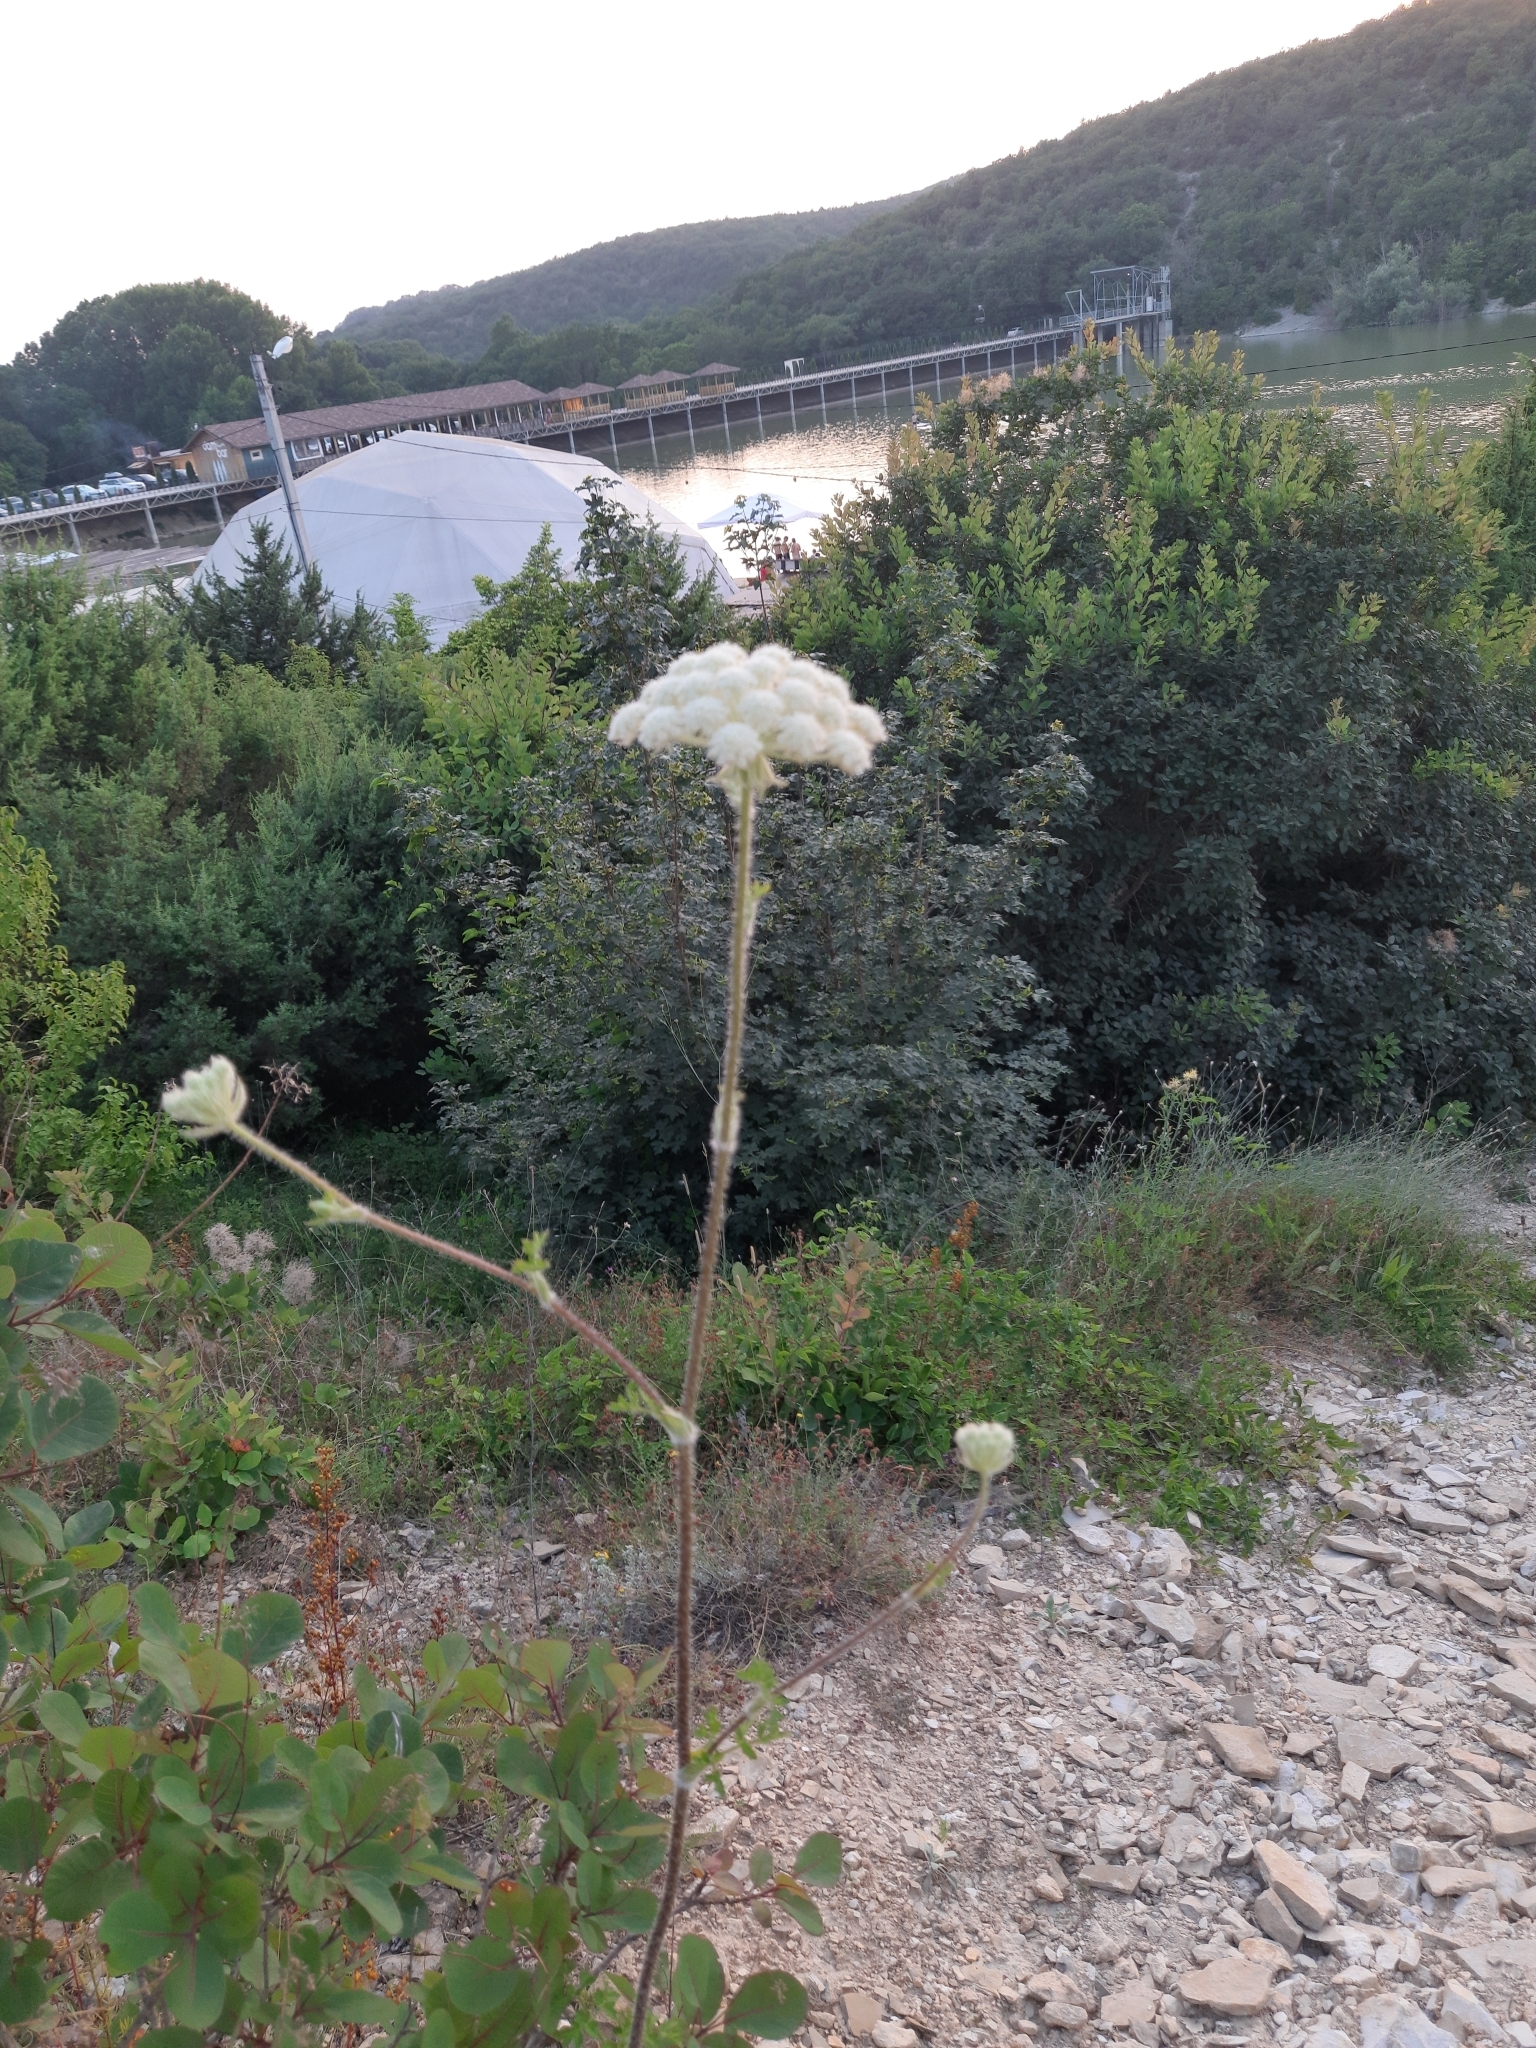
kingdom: Plantae
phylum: Tracheophyta
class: Magnoliopsida
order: Apiales
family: Apiaceae
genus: Silphiodaucus
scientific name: Silphiodaucus hispidus
